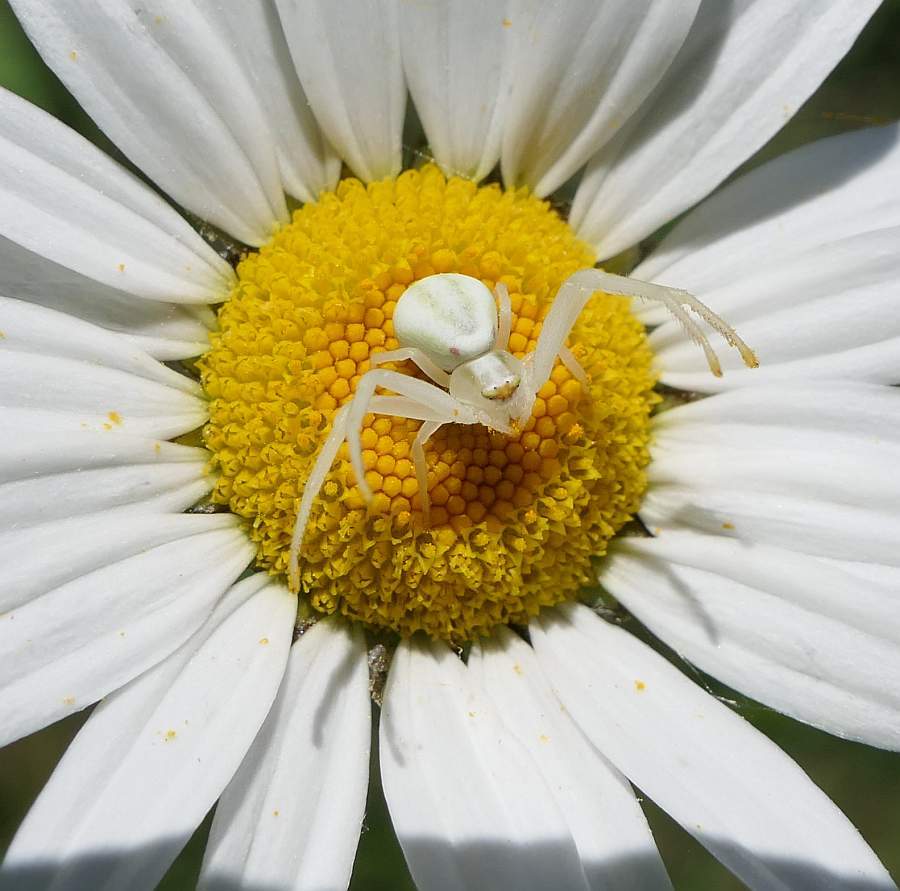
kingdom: Animalia
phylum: Arthropoda
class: Arachnida
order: Araneae
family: Thomisidae
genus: Misumena
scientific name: Misumena vatia
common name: Goldenrod crab spider
